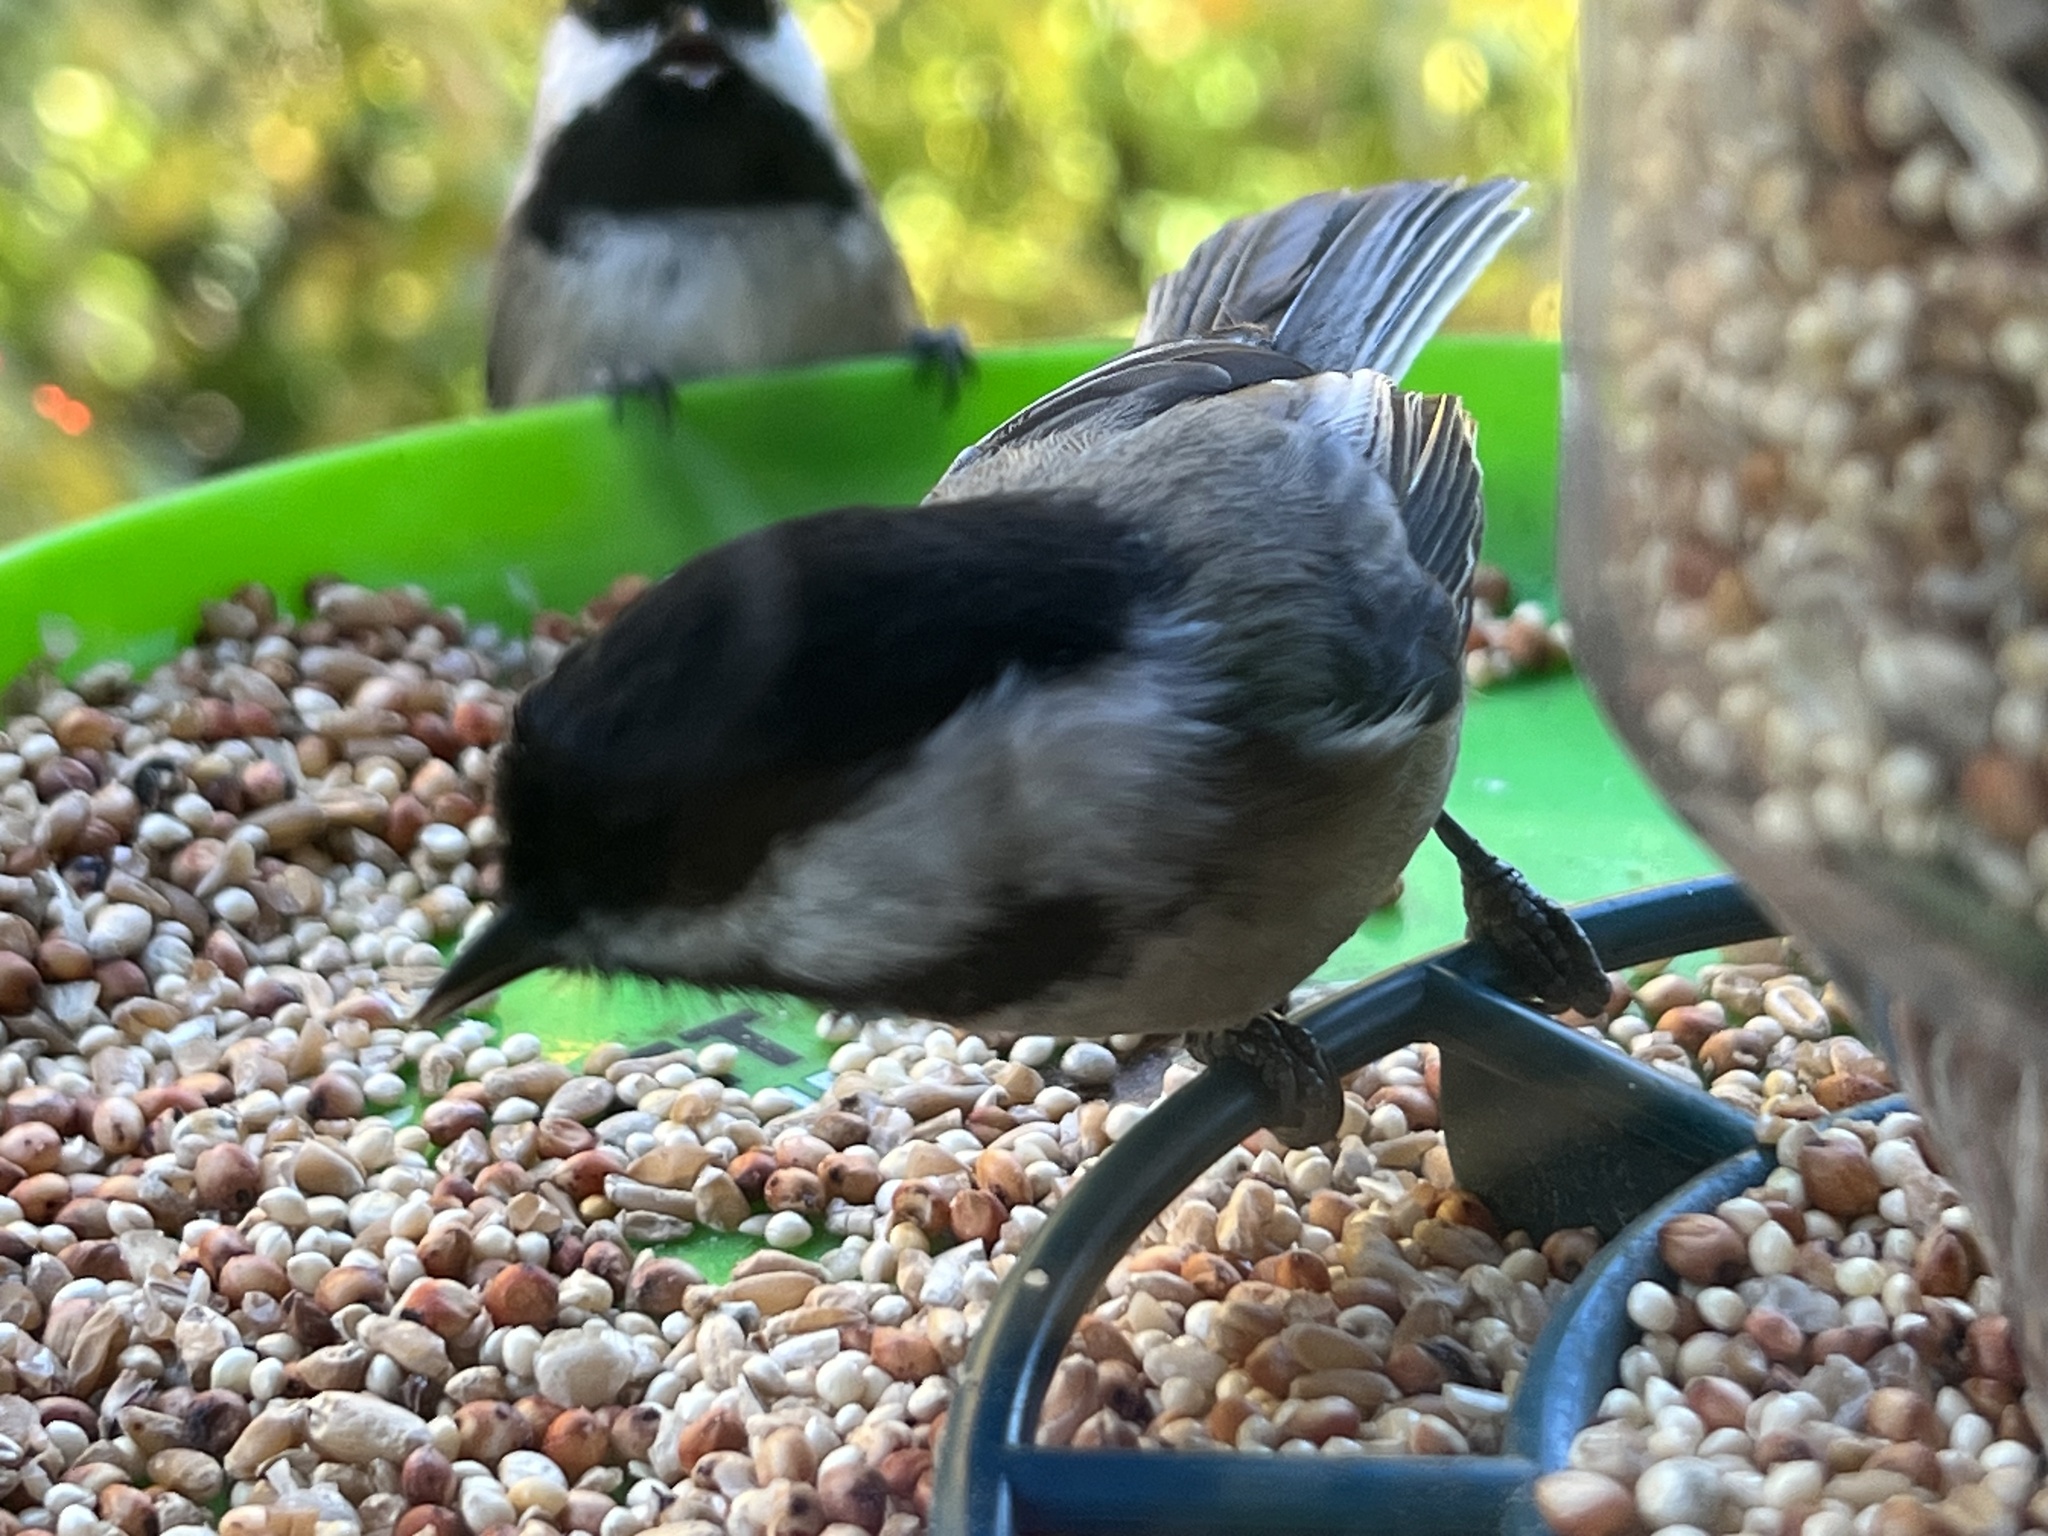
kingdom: Animalia
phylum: Chordata
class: Aves
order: Passeriformes
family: Paridae
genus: Poecile
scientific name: Poecile atricapillus
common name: Black-capped chickadee
